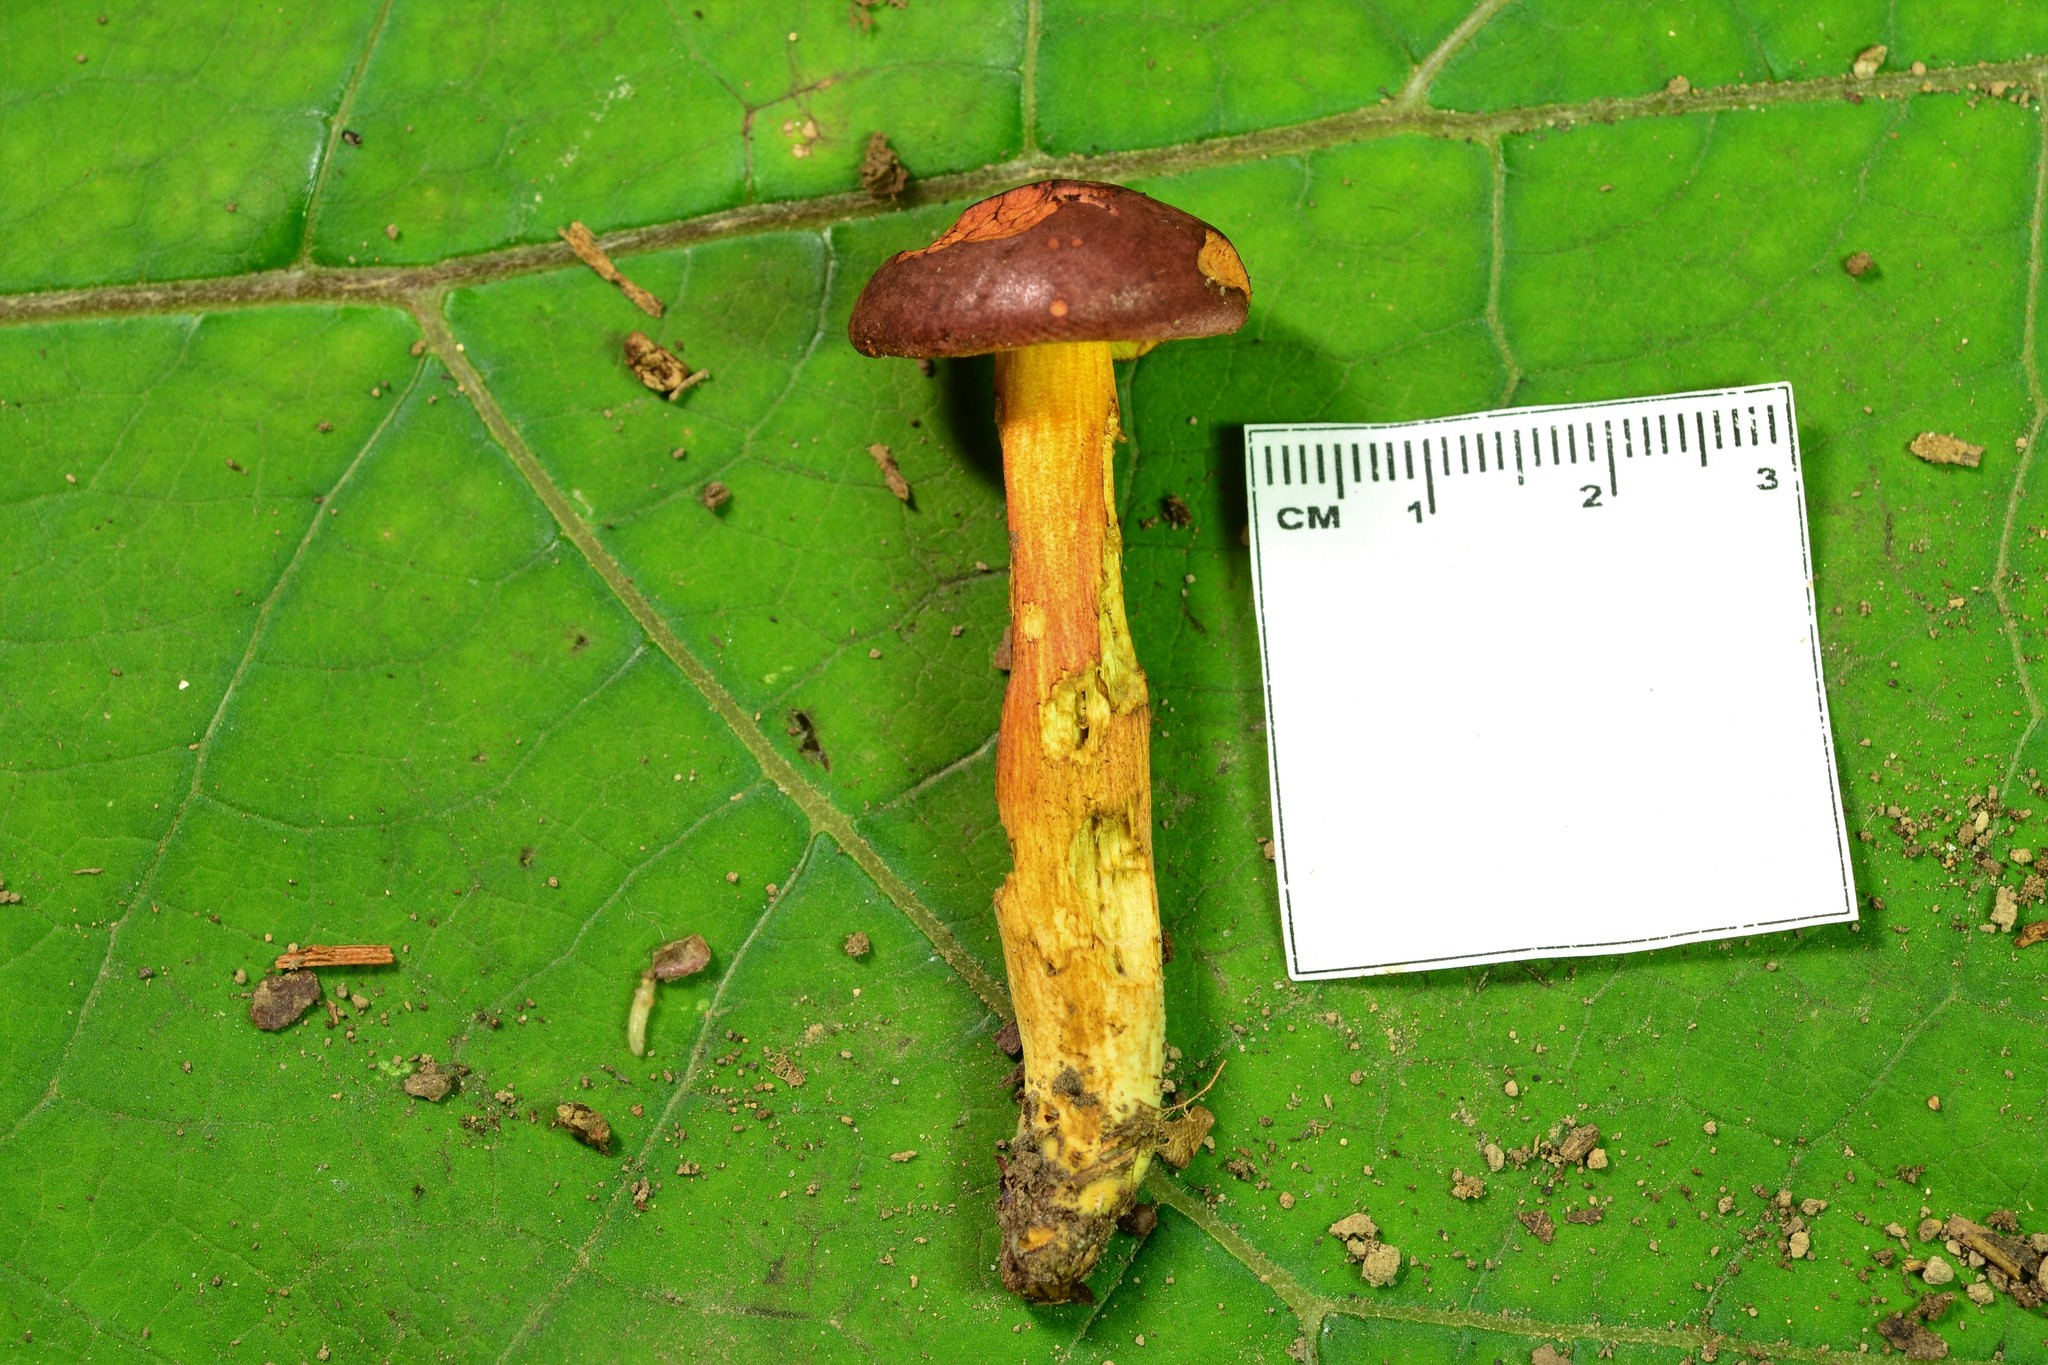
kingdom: Fungi
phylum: Basidiomycota
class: Agaricomycetes
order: Boletales
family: Boletaceae
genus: Aureoboletus
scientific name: Aureoboletus auriporus
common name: Sour gold-pored bolete
